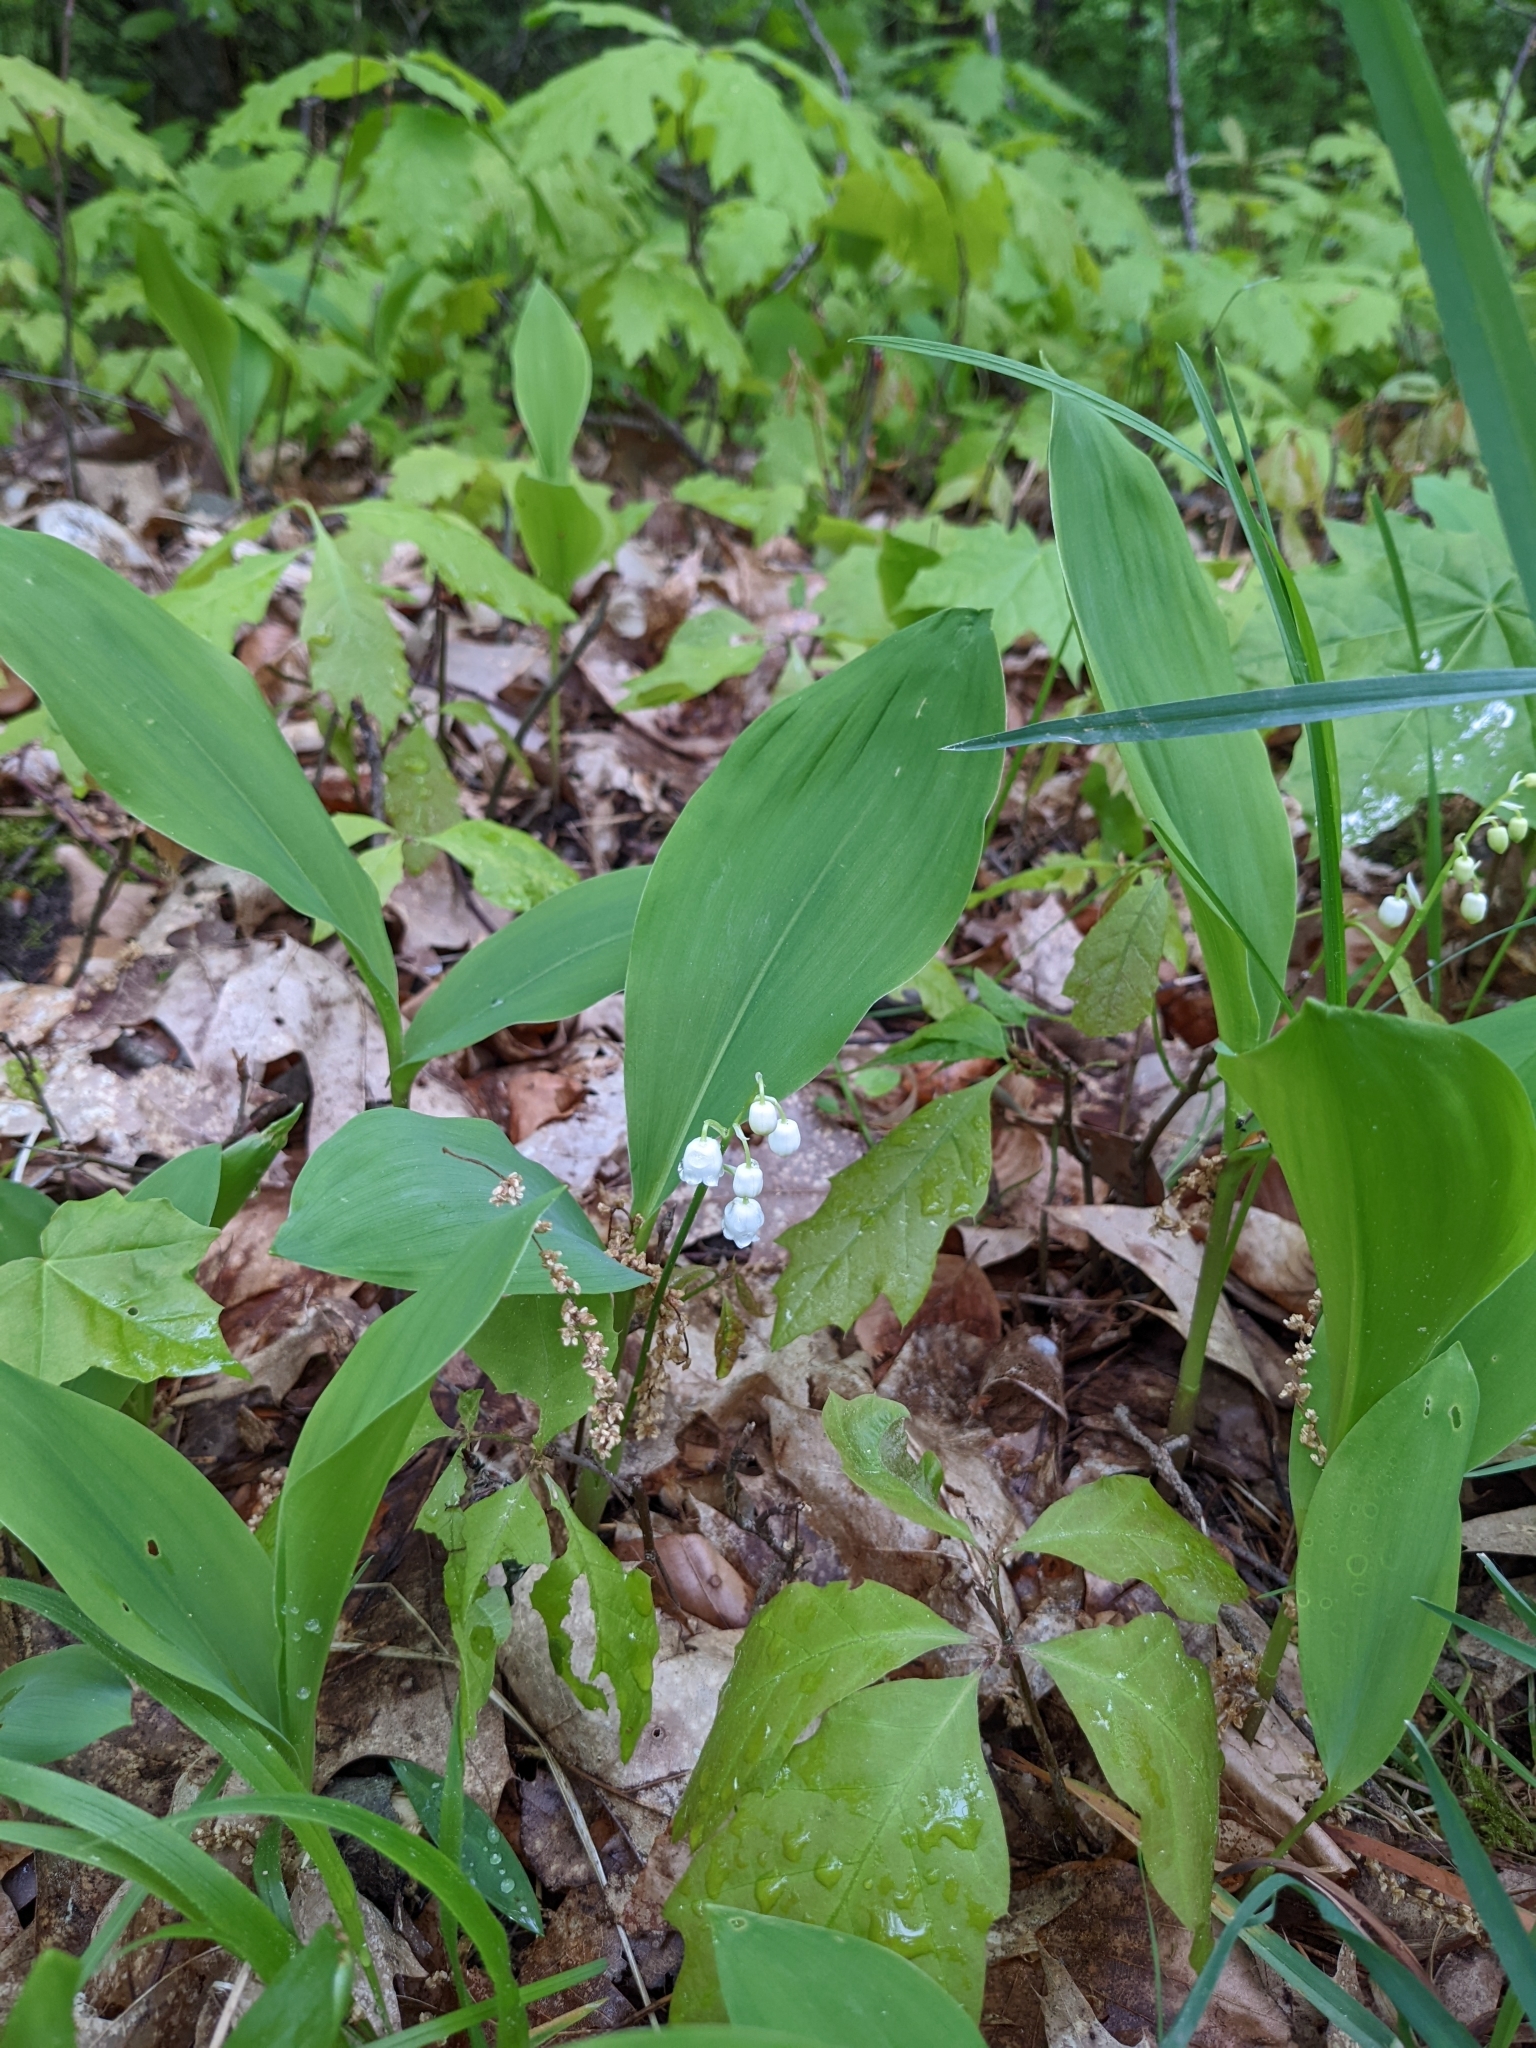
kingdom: Plantae
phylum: Tracheophyta
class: Liliopsida
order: Asparagales
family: Asparagaceae
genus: Convallaria
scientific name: Convallaria majalis
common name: Lily-of-the-valley
